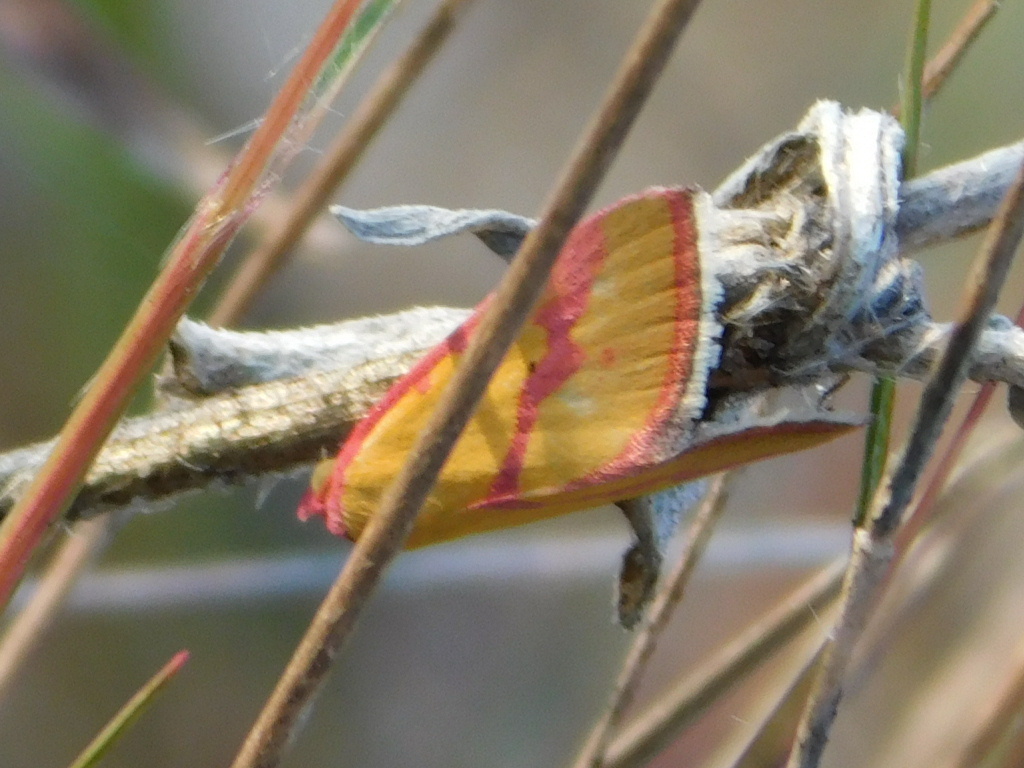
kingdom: Animalia
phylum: Arthropoda
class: Insecta
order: Lepidoptera
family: Erebidae
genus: Phytometra
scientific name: Phytometra ernestinana
